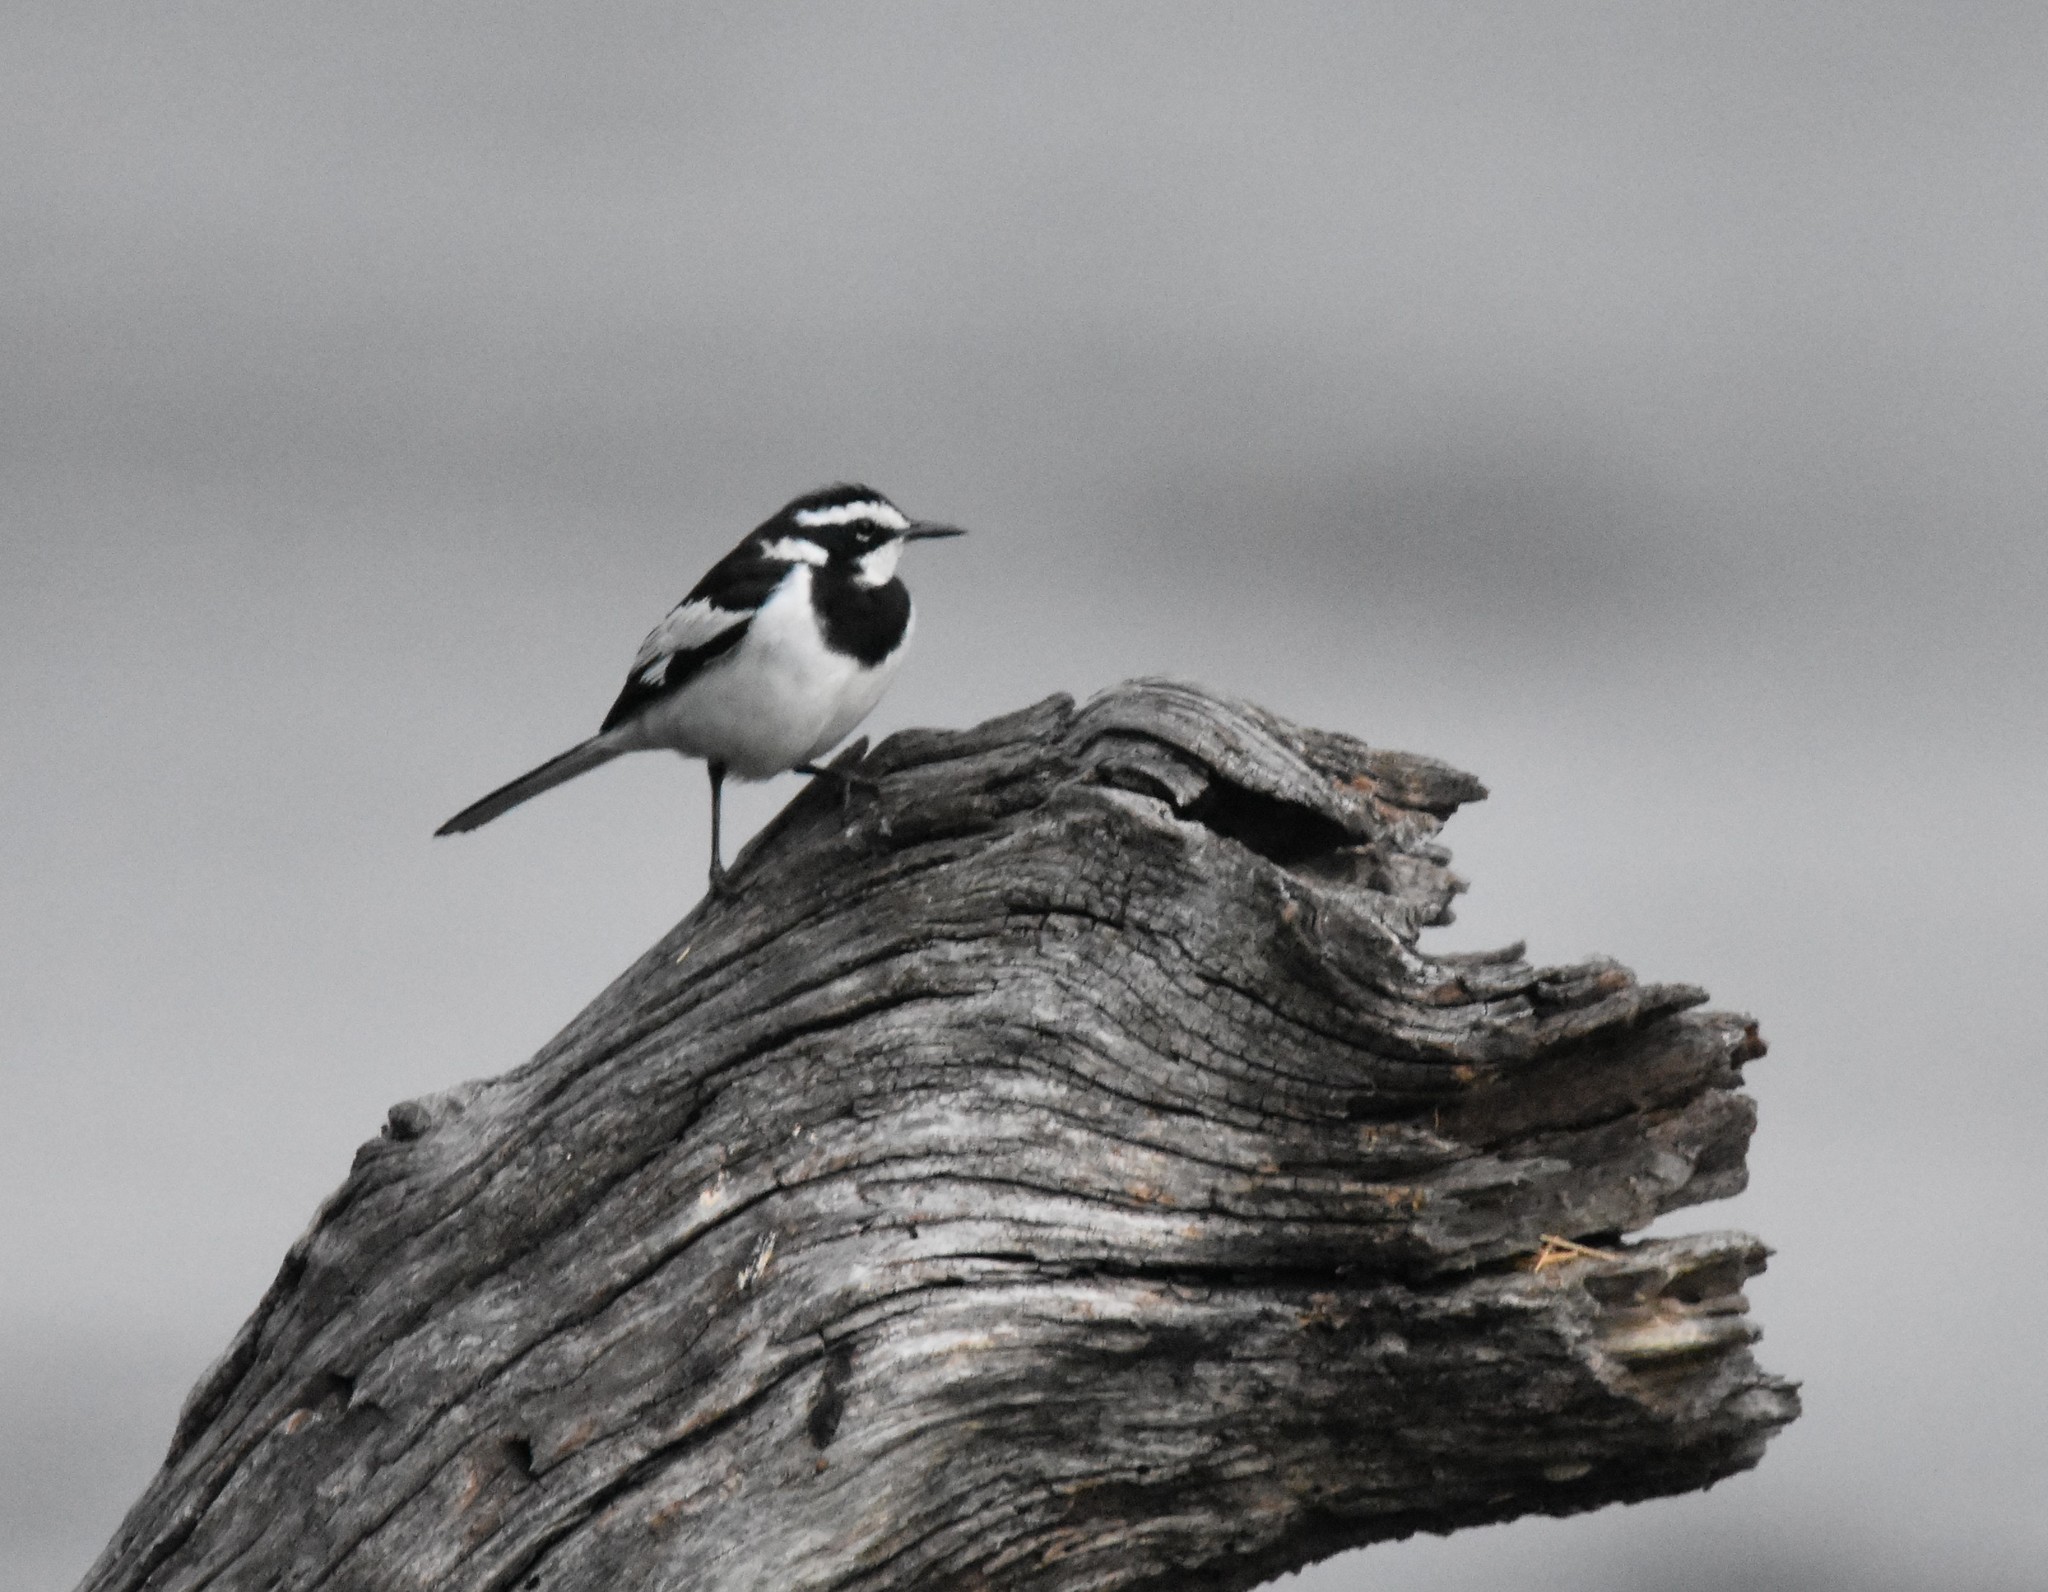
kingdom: Animalia
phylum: Chordata
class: Aves
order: Passeriformes
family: Motacillidae
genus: Motacilla
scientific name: Motacilla aguimp
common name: African pied wagtail
